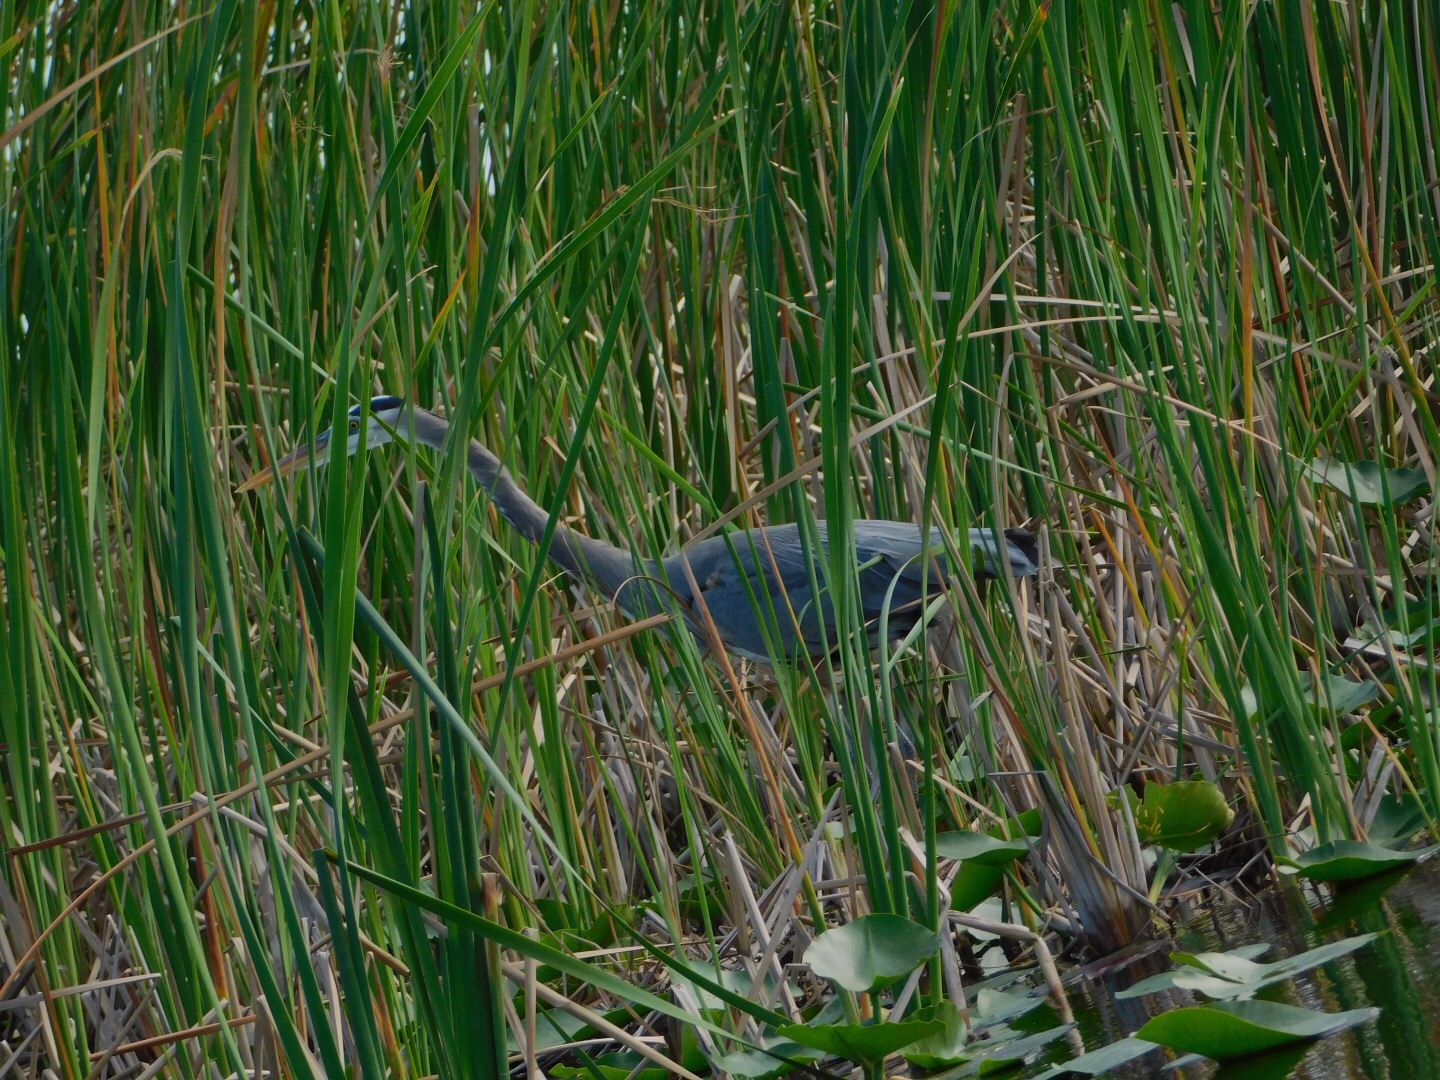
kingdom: Animalia
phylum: Chordata
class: Aves
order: Pelecaniformes
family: Ardeidae
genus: Ardea
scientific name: Ardea herodias
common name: Great blue heron
